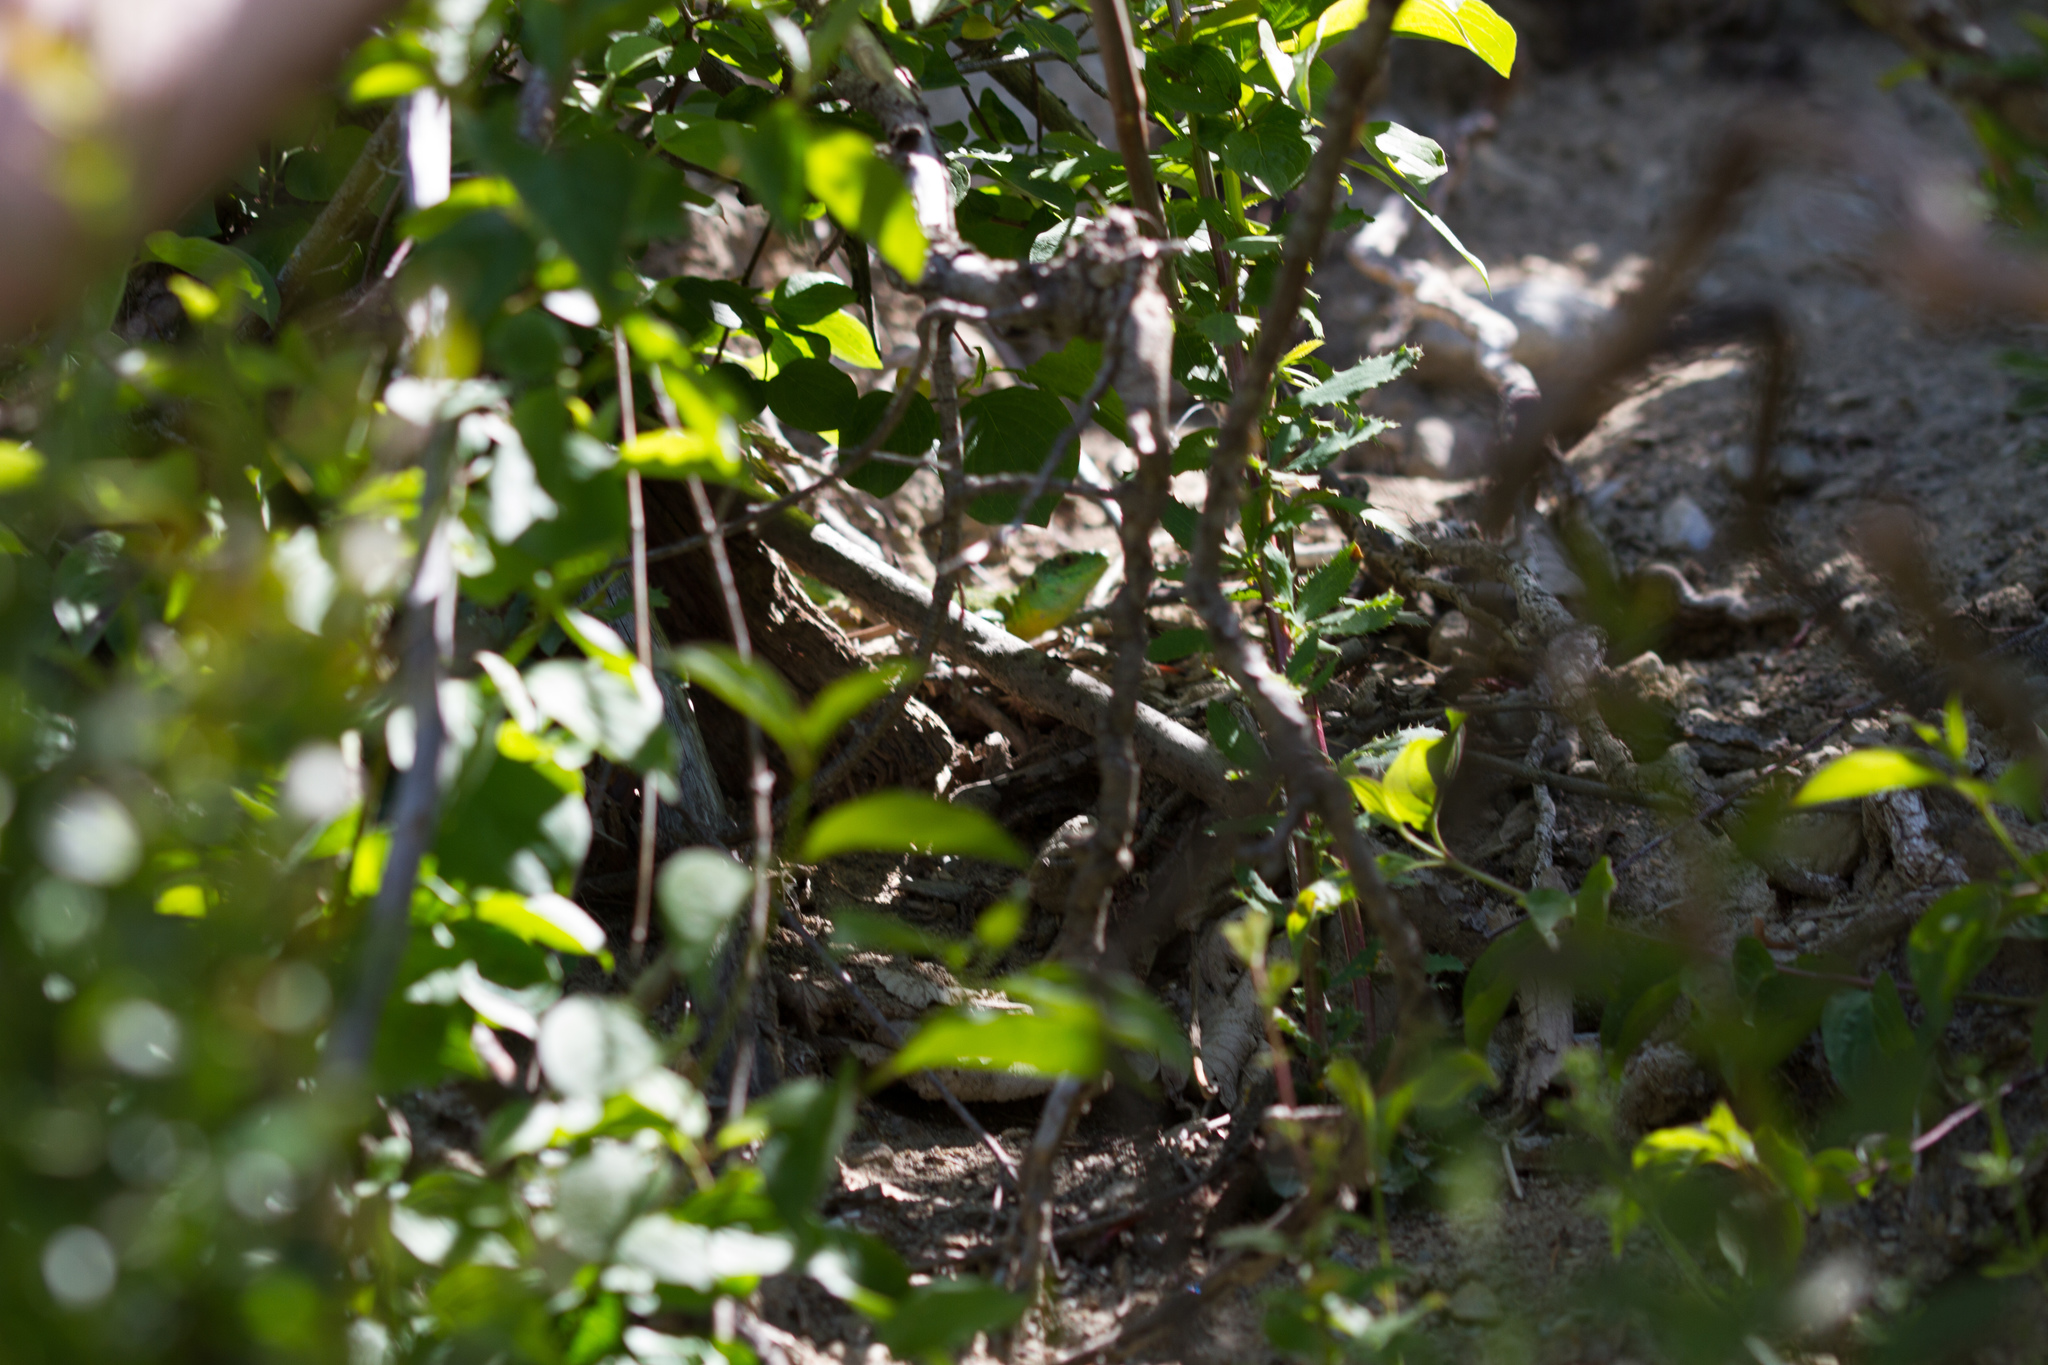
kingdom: Animalia
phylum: Chordata
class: Squamata
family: Lacertidae
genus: Lacerta
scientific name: Lacerta bilineata
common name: Western green lizard
